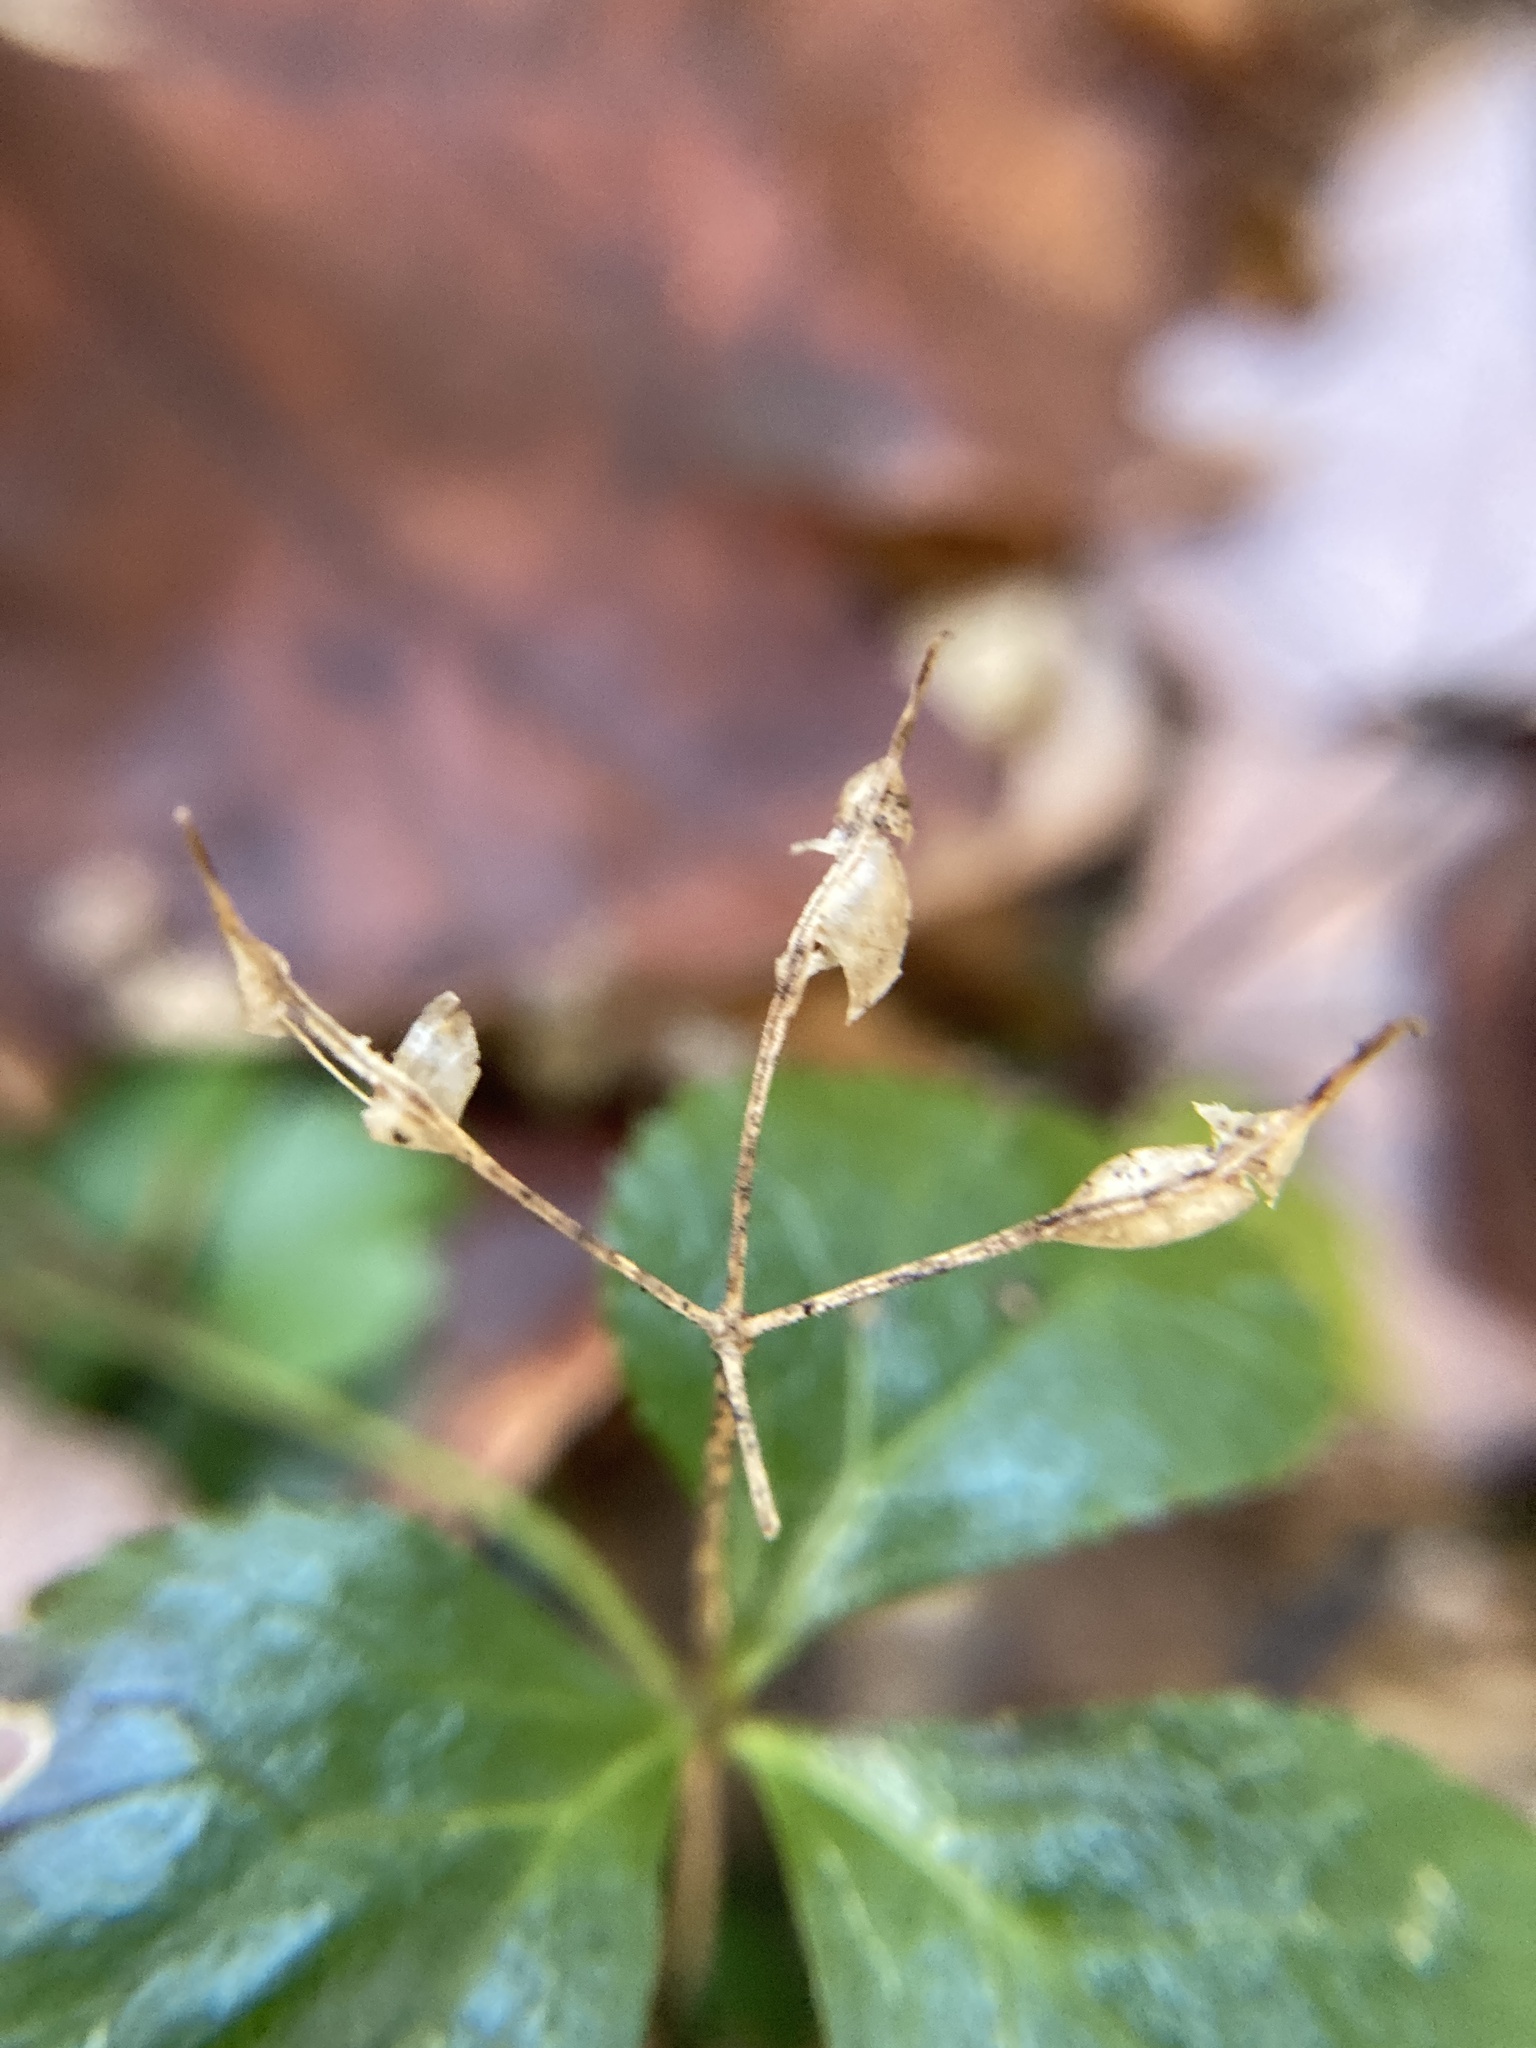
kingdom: Plantae
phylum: Tracheophyta
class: Magnoliopsida
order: Ranunculales
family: Ranunculaceae
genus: Coptis
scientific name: Coptis trifolia
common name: Canker-root
